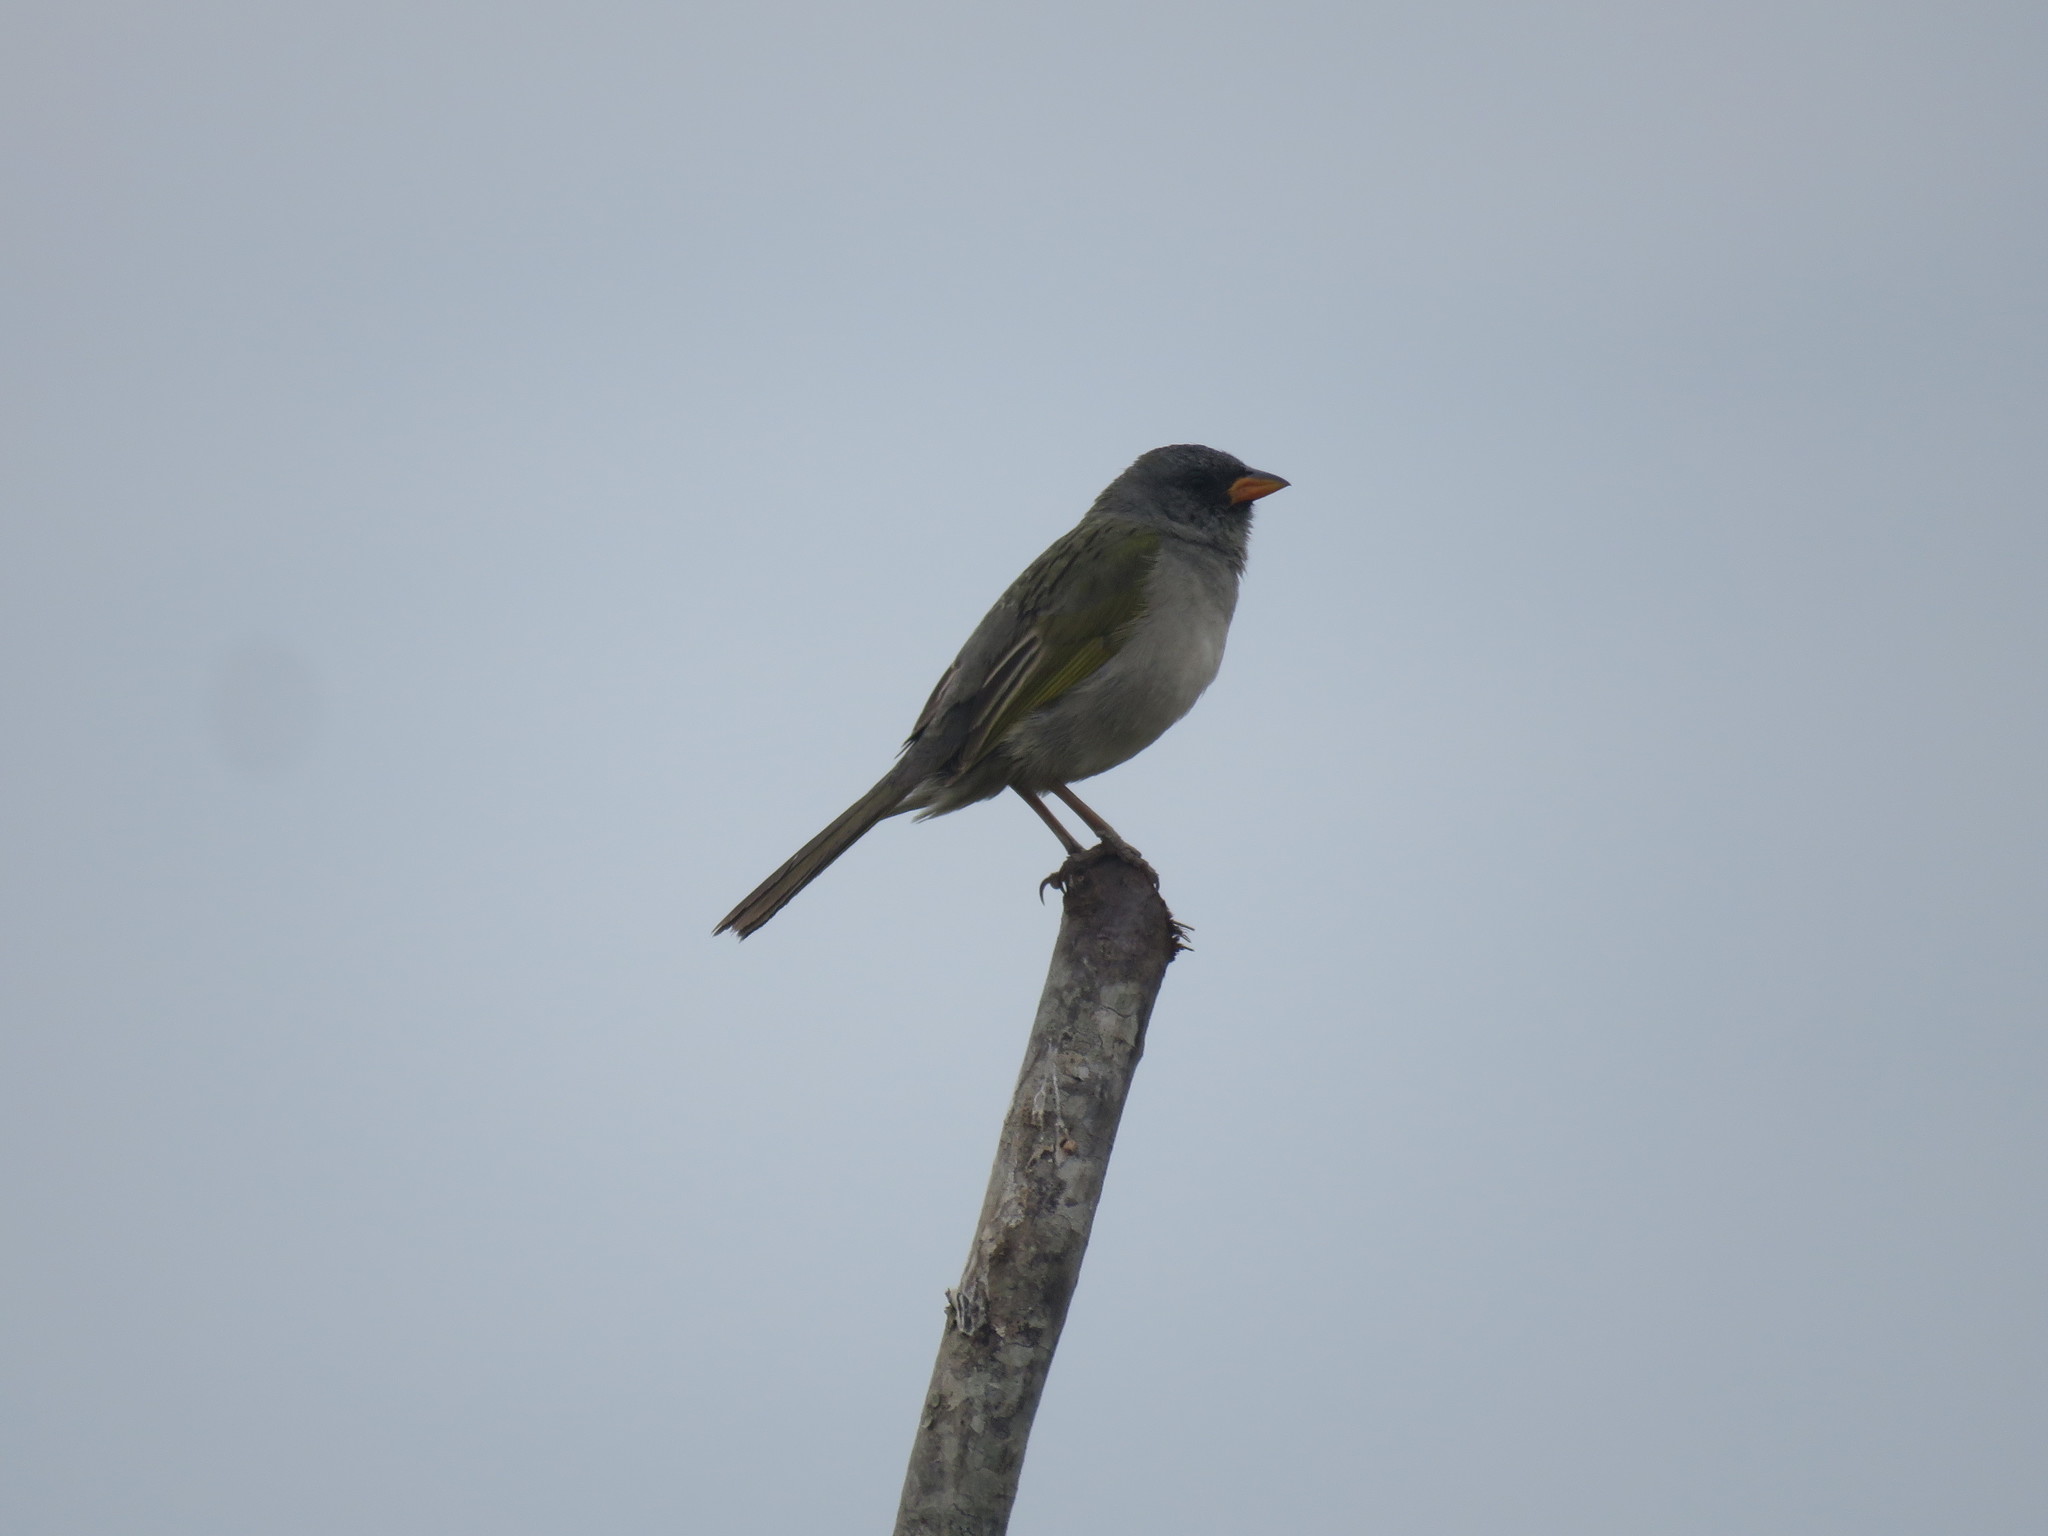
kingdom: Animalia
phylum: Chordata
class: Aves
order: Passeriformes
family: Thraupidae
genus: Embernagra
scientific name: Embernagra platensis
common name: Pampa finch
